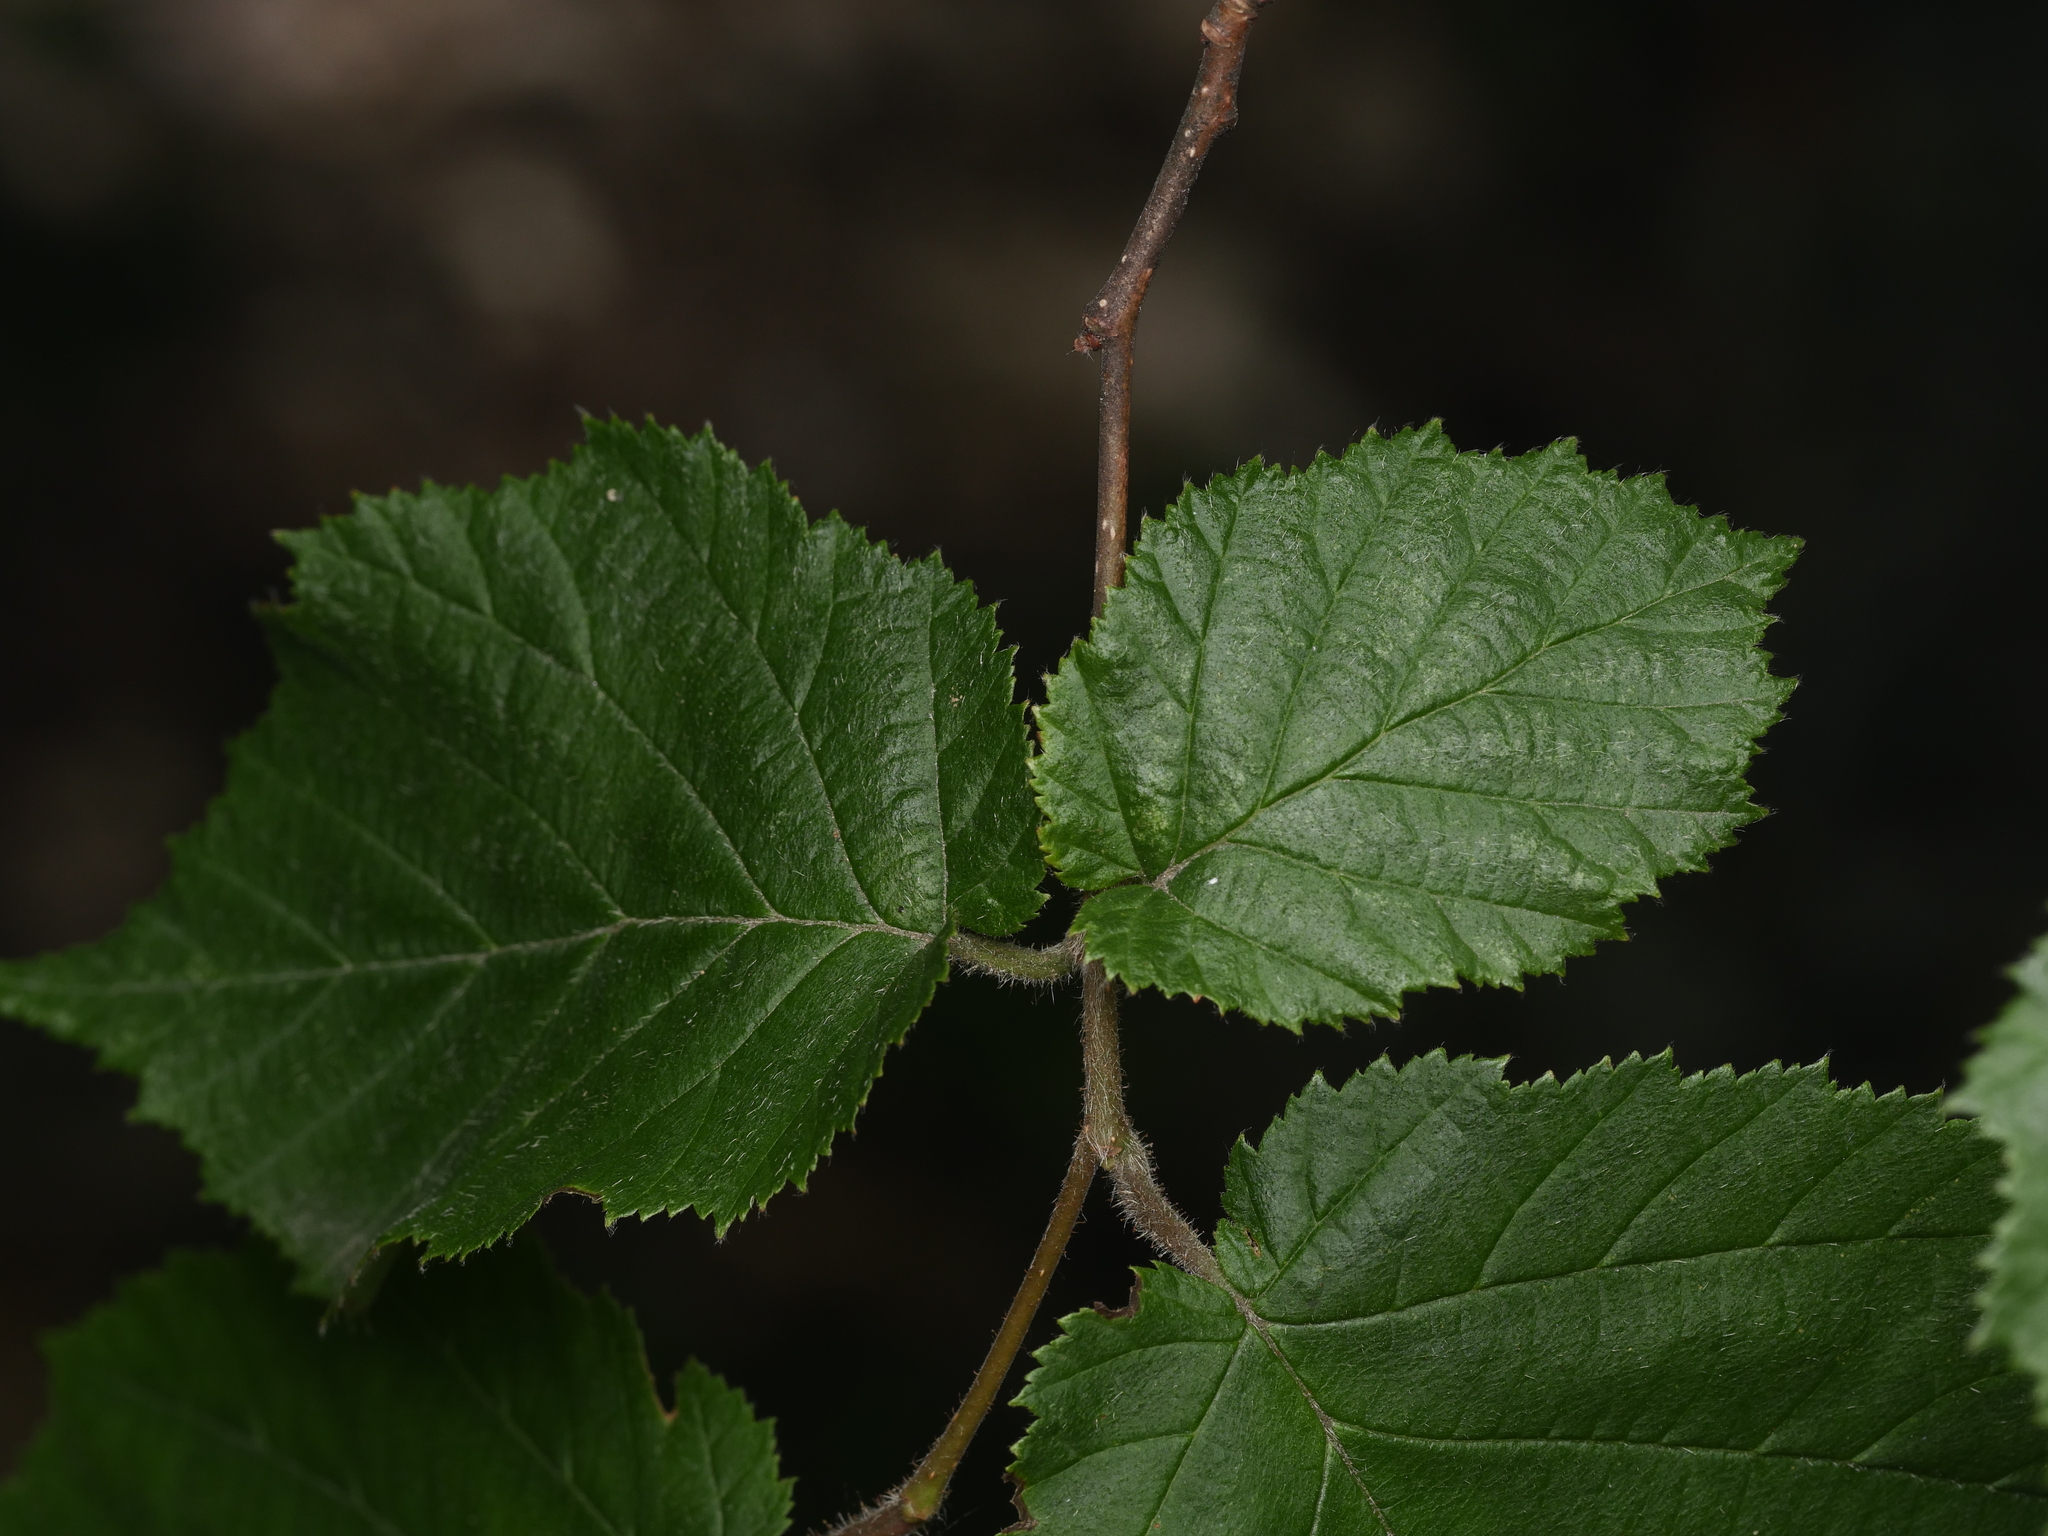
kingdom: Plantae
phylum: Tracheophyta
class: Magnoliopsida
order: Fagales
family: Betulaceae
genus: Corylus
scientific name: Corylus avellana
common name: European hazel
